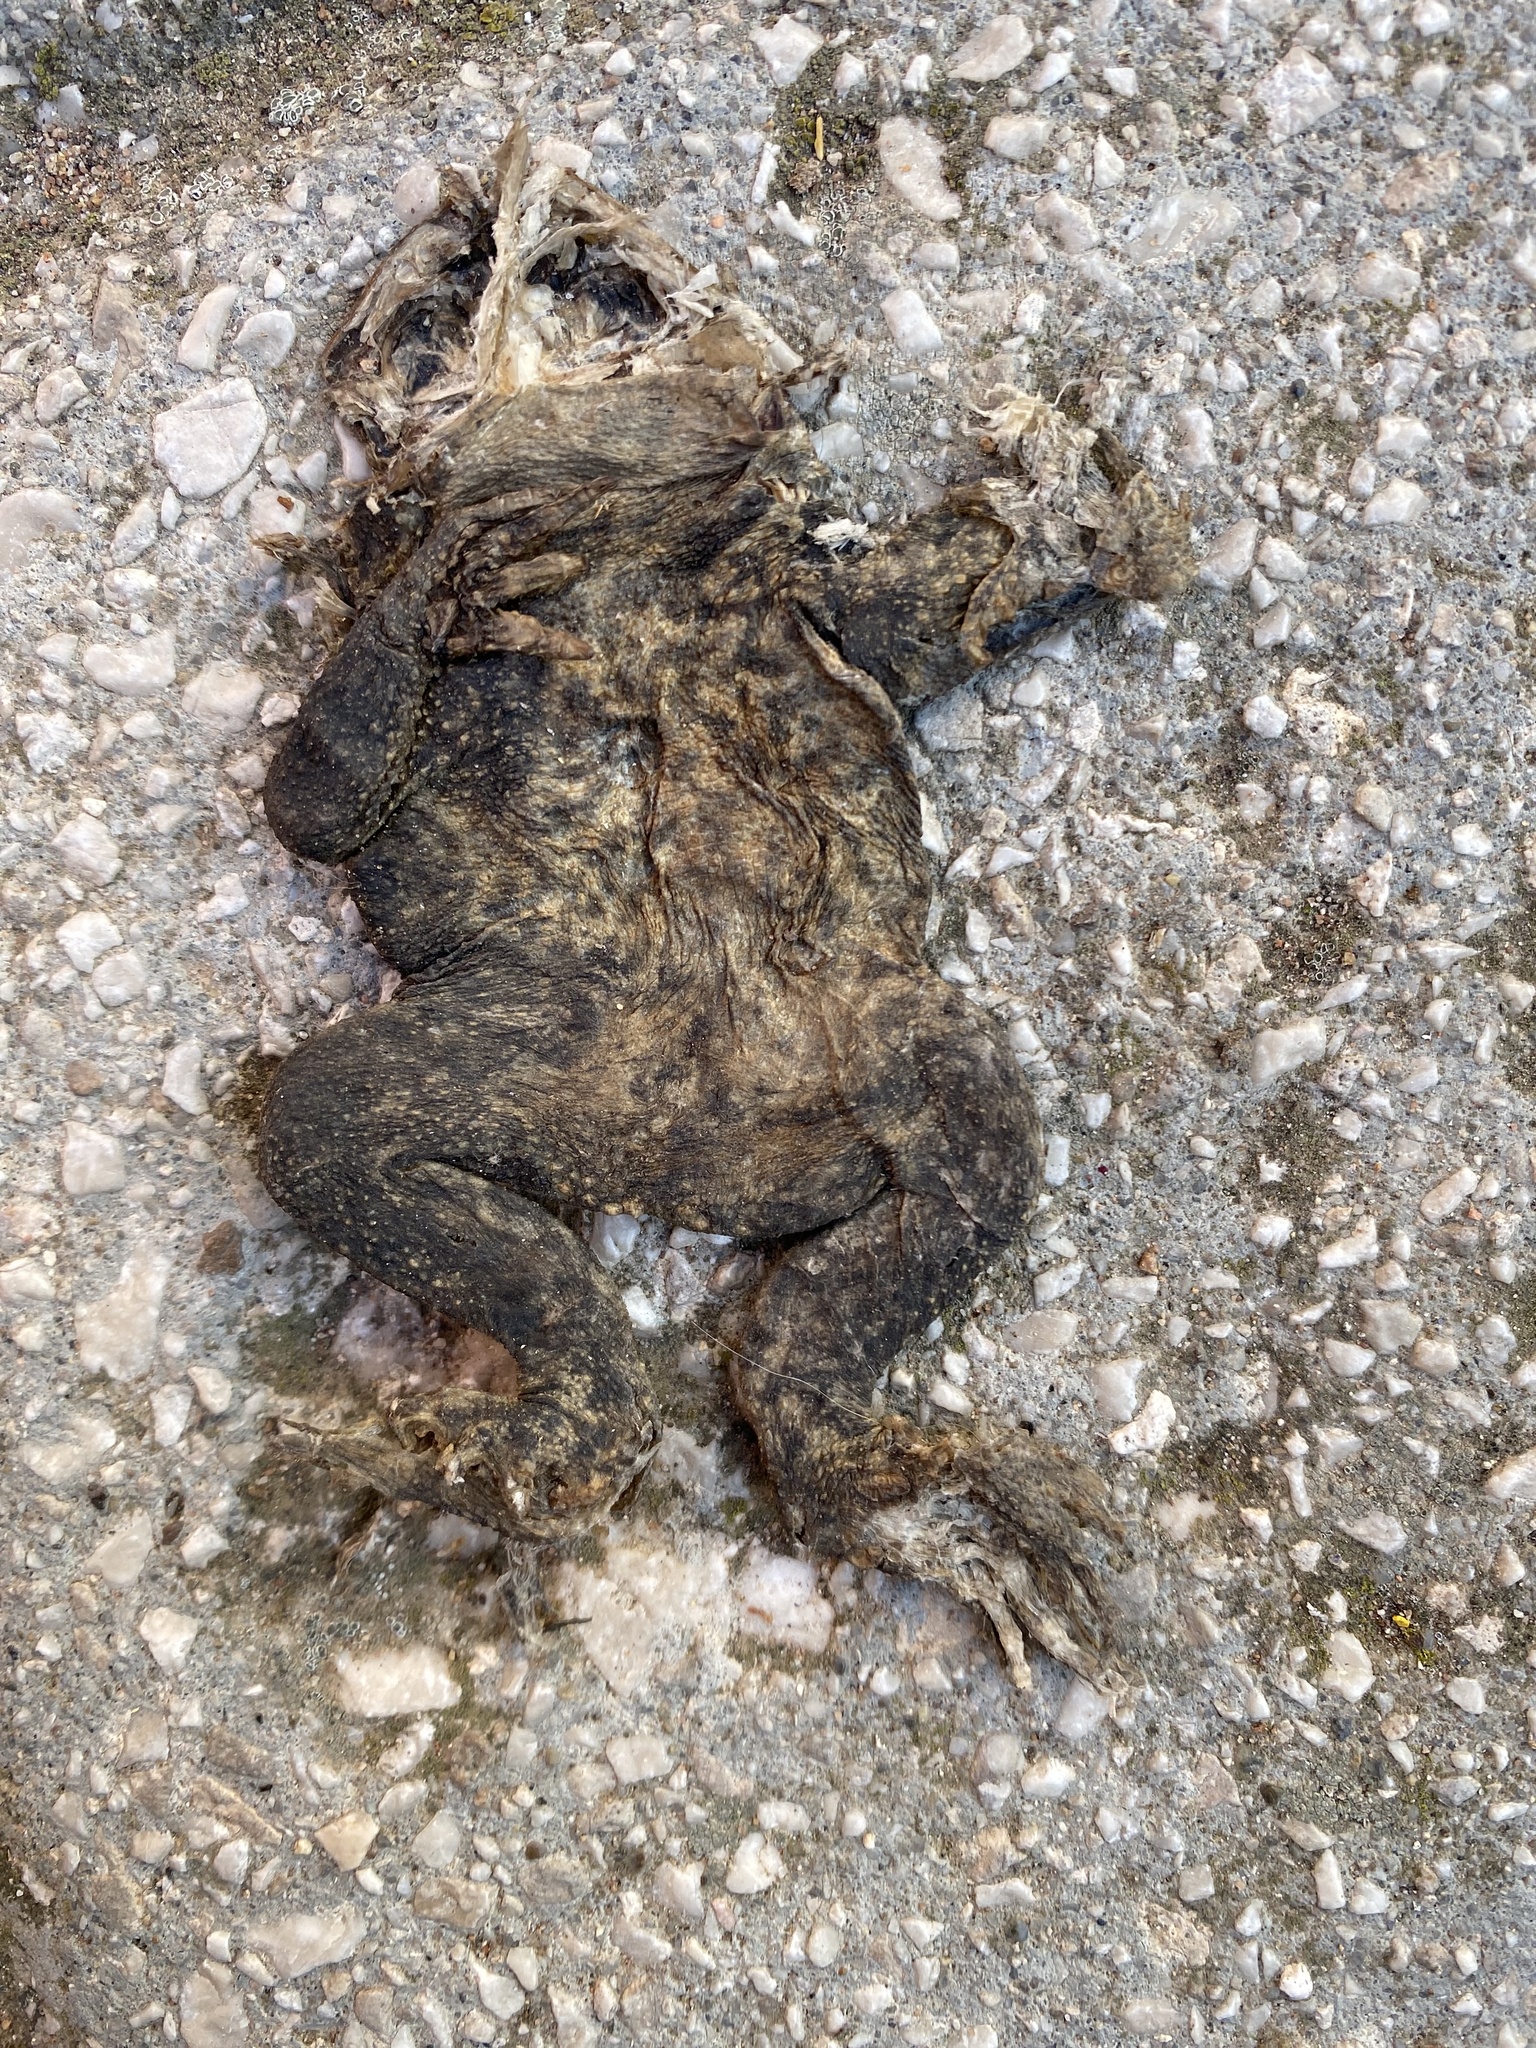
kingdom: Animalia
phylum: Chordata
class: Amphibia
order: Anura
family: Bufonidae
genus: Bufo
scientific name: Bufo spinosus
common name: Western common toad
